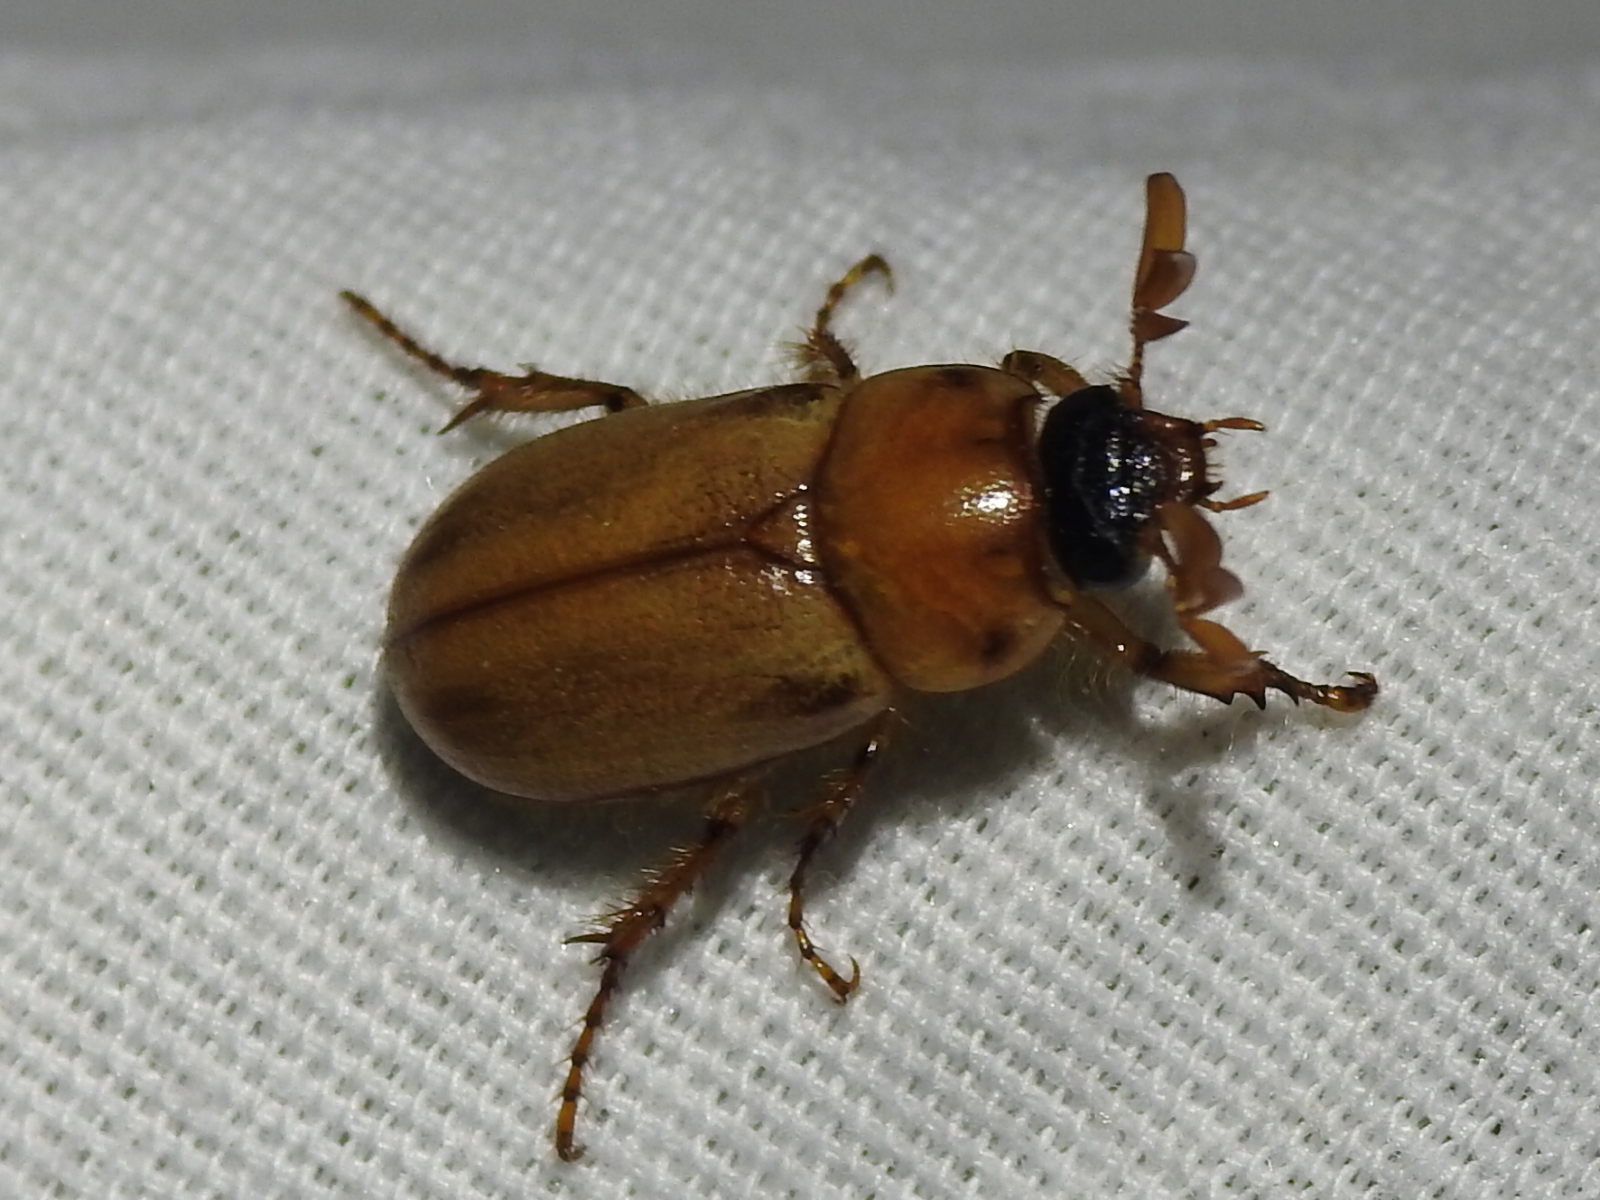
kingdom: Animalia
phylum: Arthropoda
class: Insecta
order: Coleoptera
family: Scarabaeidae
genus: Cyclocephala
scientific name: Cyclocephala lurida
